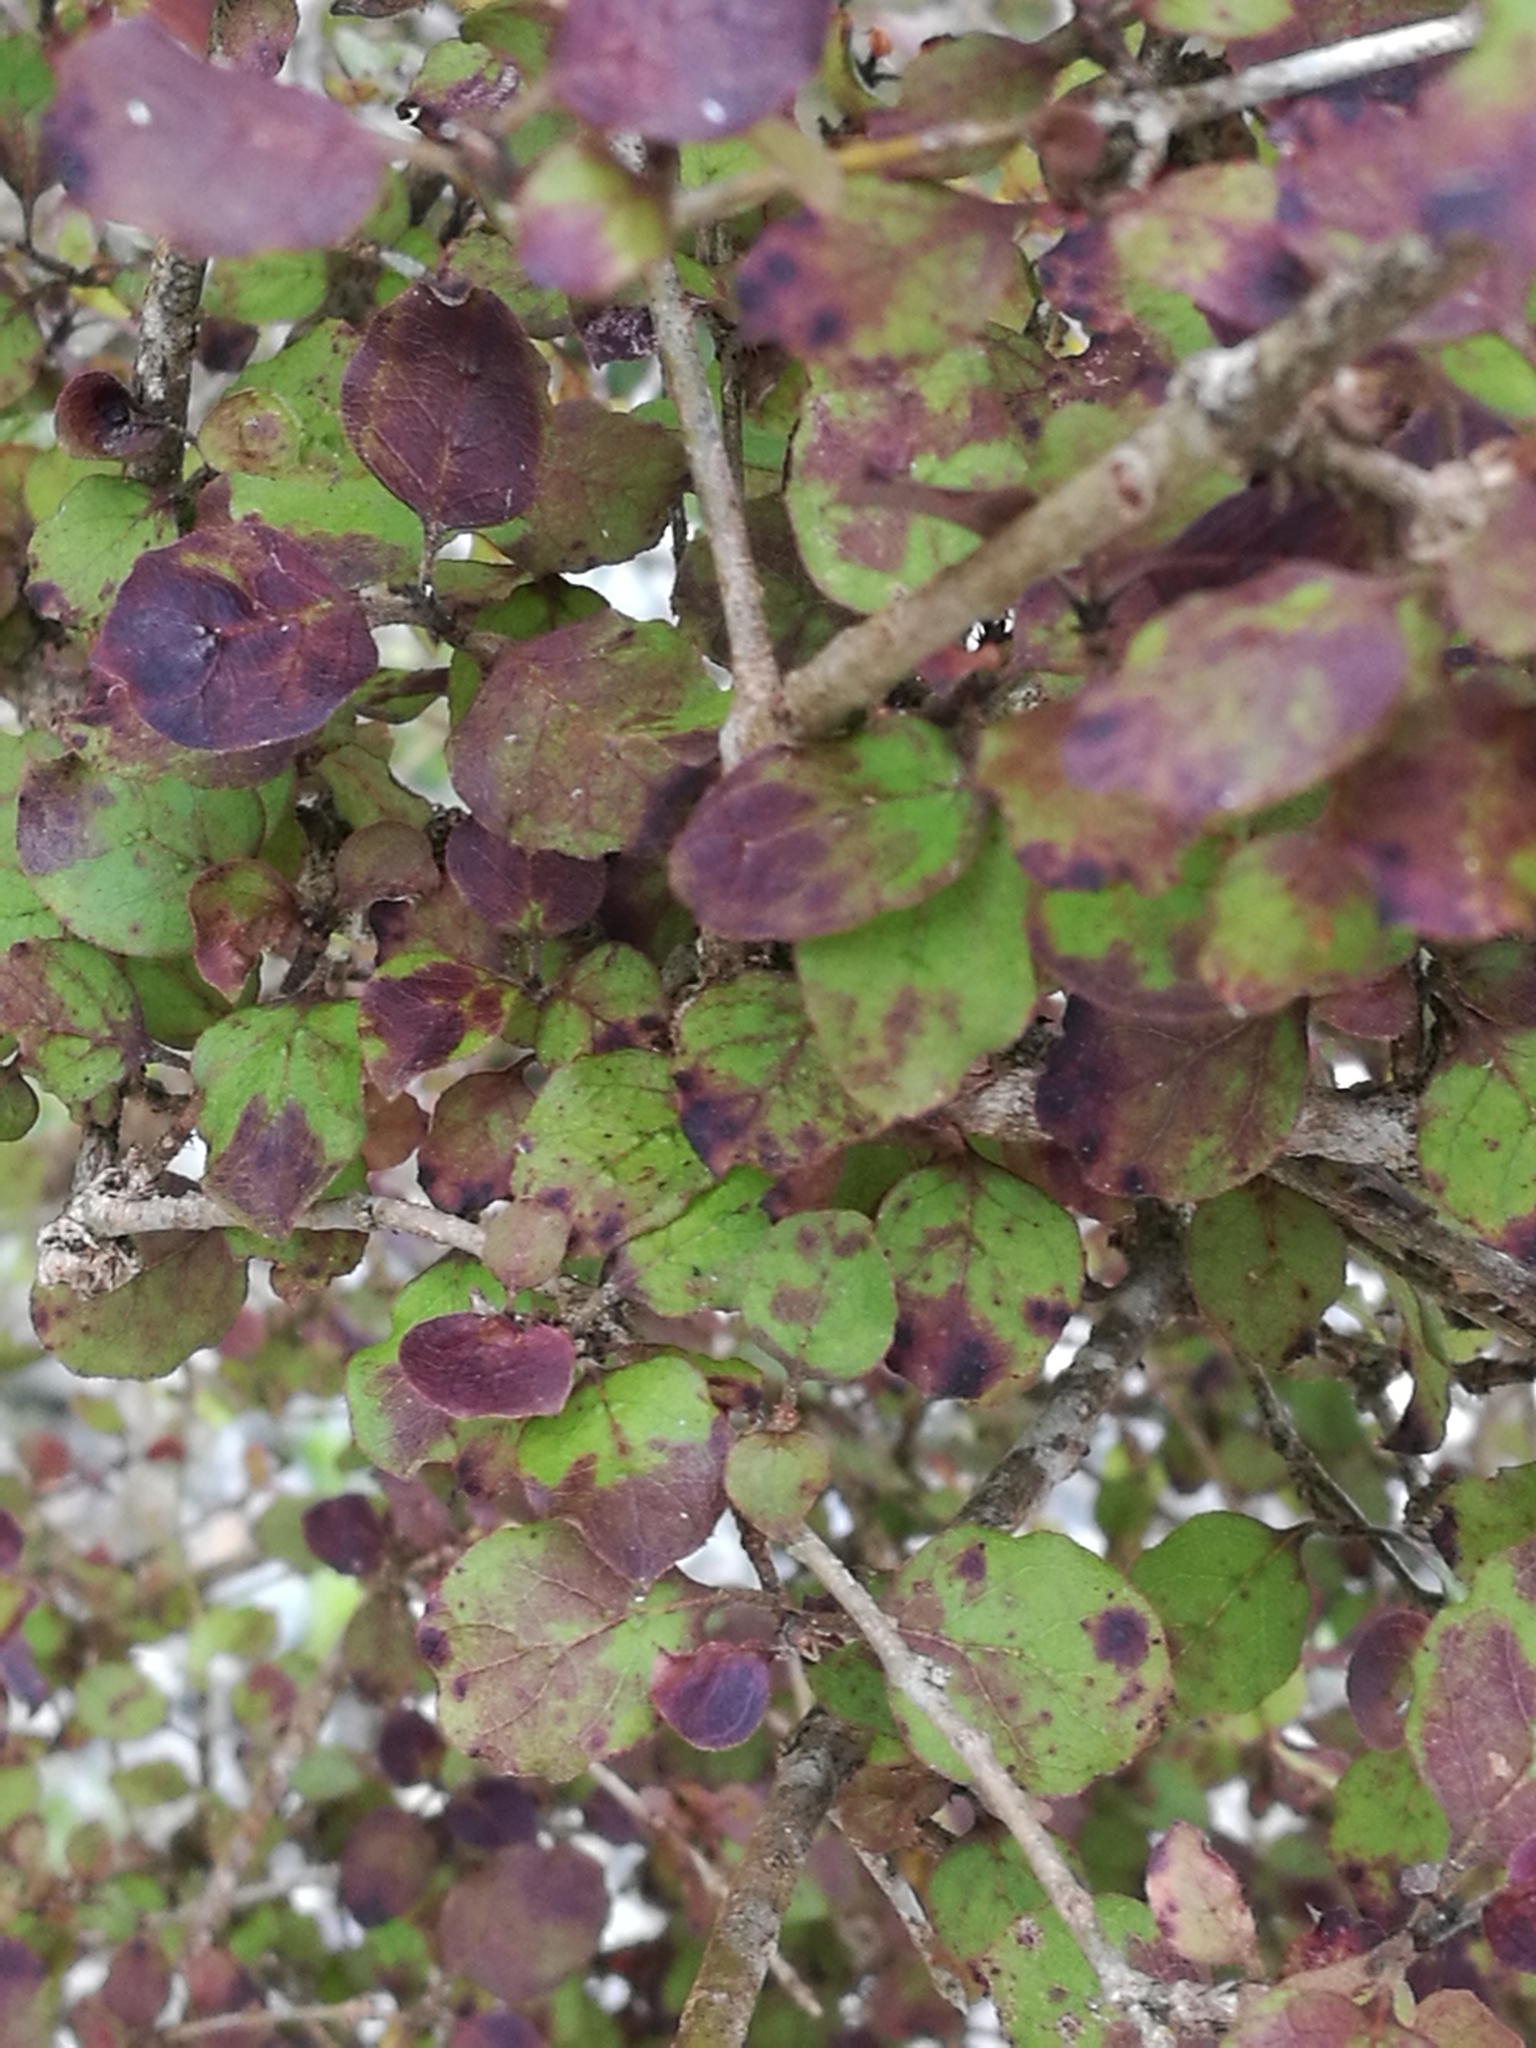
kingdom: Plantae
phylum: Tracheophyta
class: Magnoliopsida
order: Gentianales
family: Rubiaceae
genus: Coprosma
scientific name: Coprosma rotundifolia
